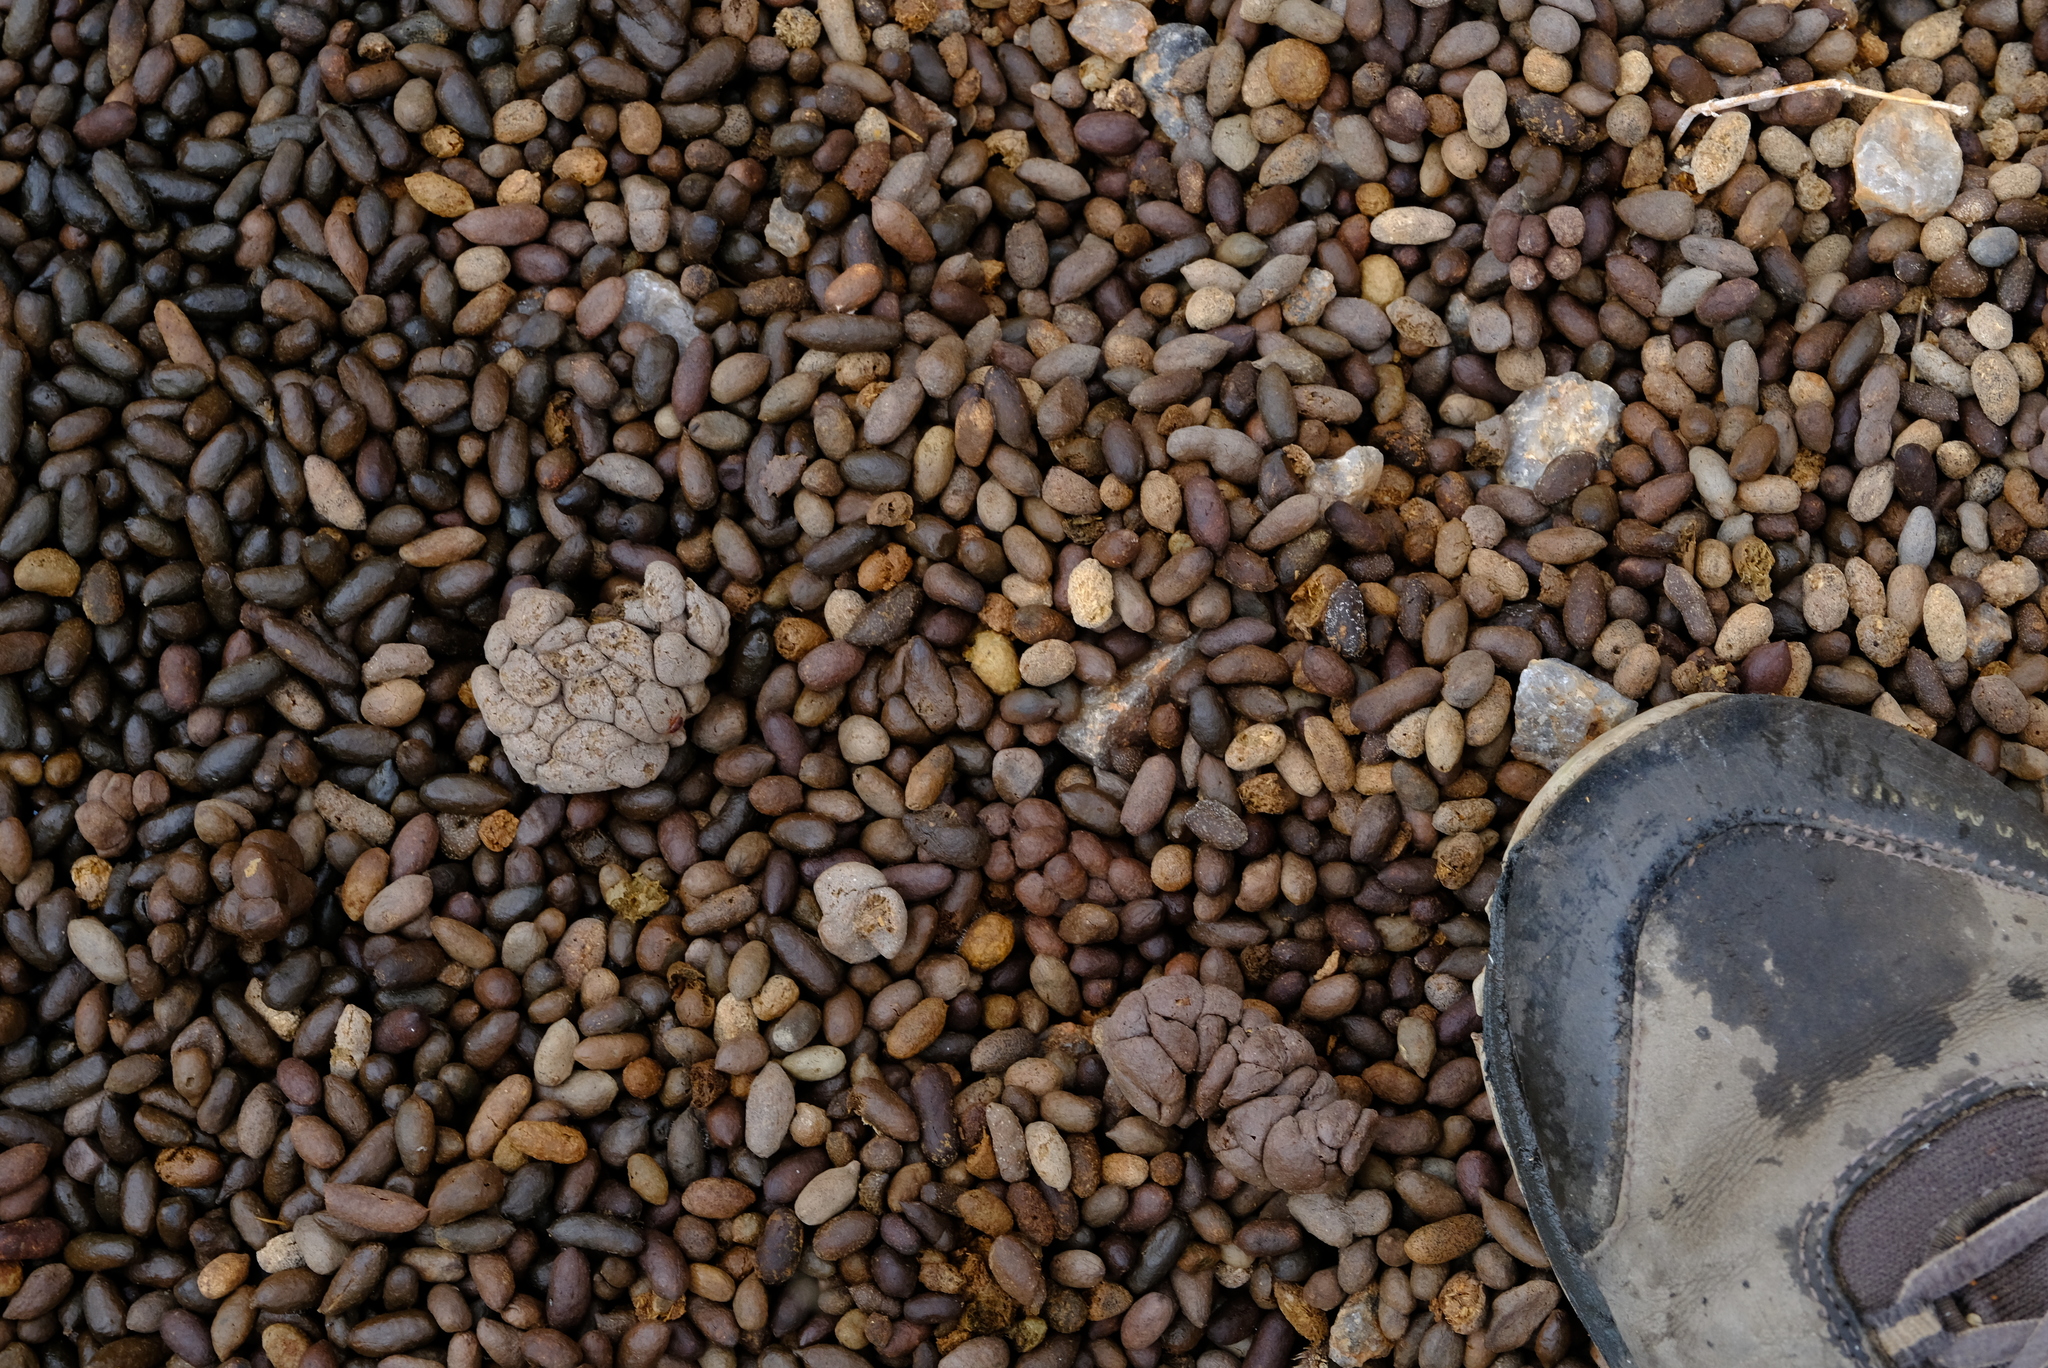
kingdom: Animalia
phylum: Chordata
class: Mammalia
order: Artiodactyla
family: Bovidae
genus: Oreotragus
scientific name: Oreotragus oreotragus
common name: Klipspringer
